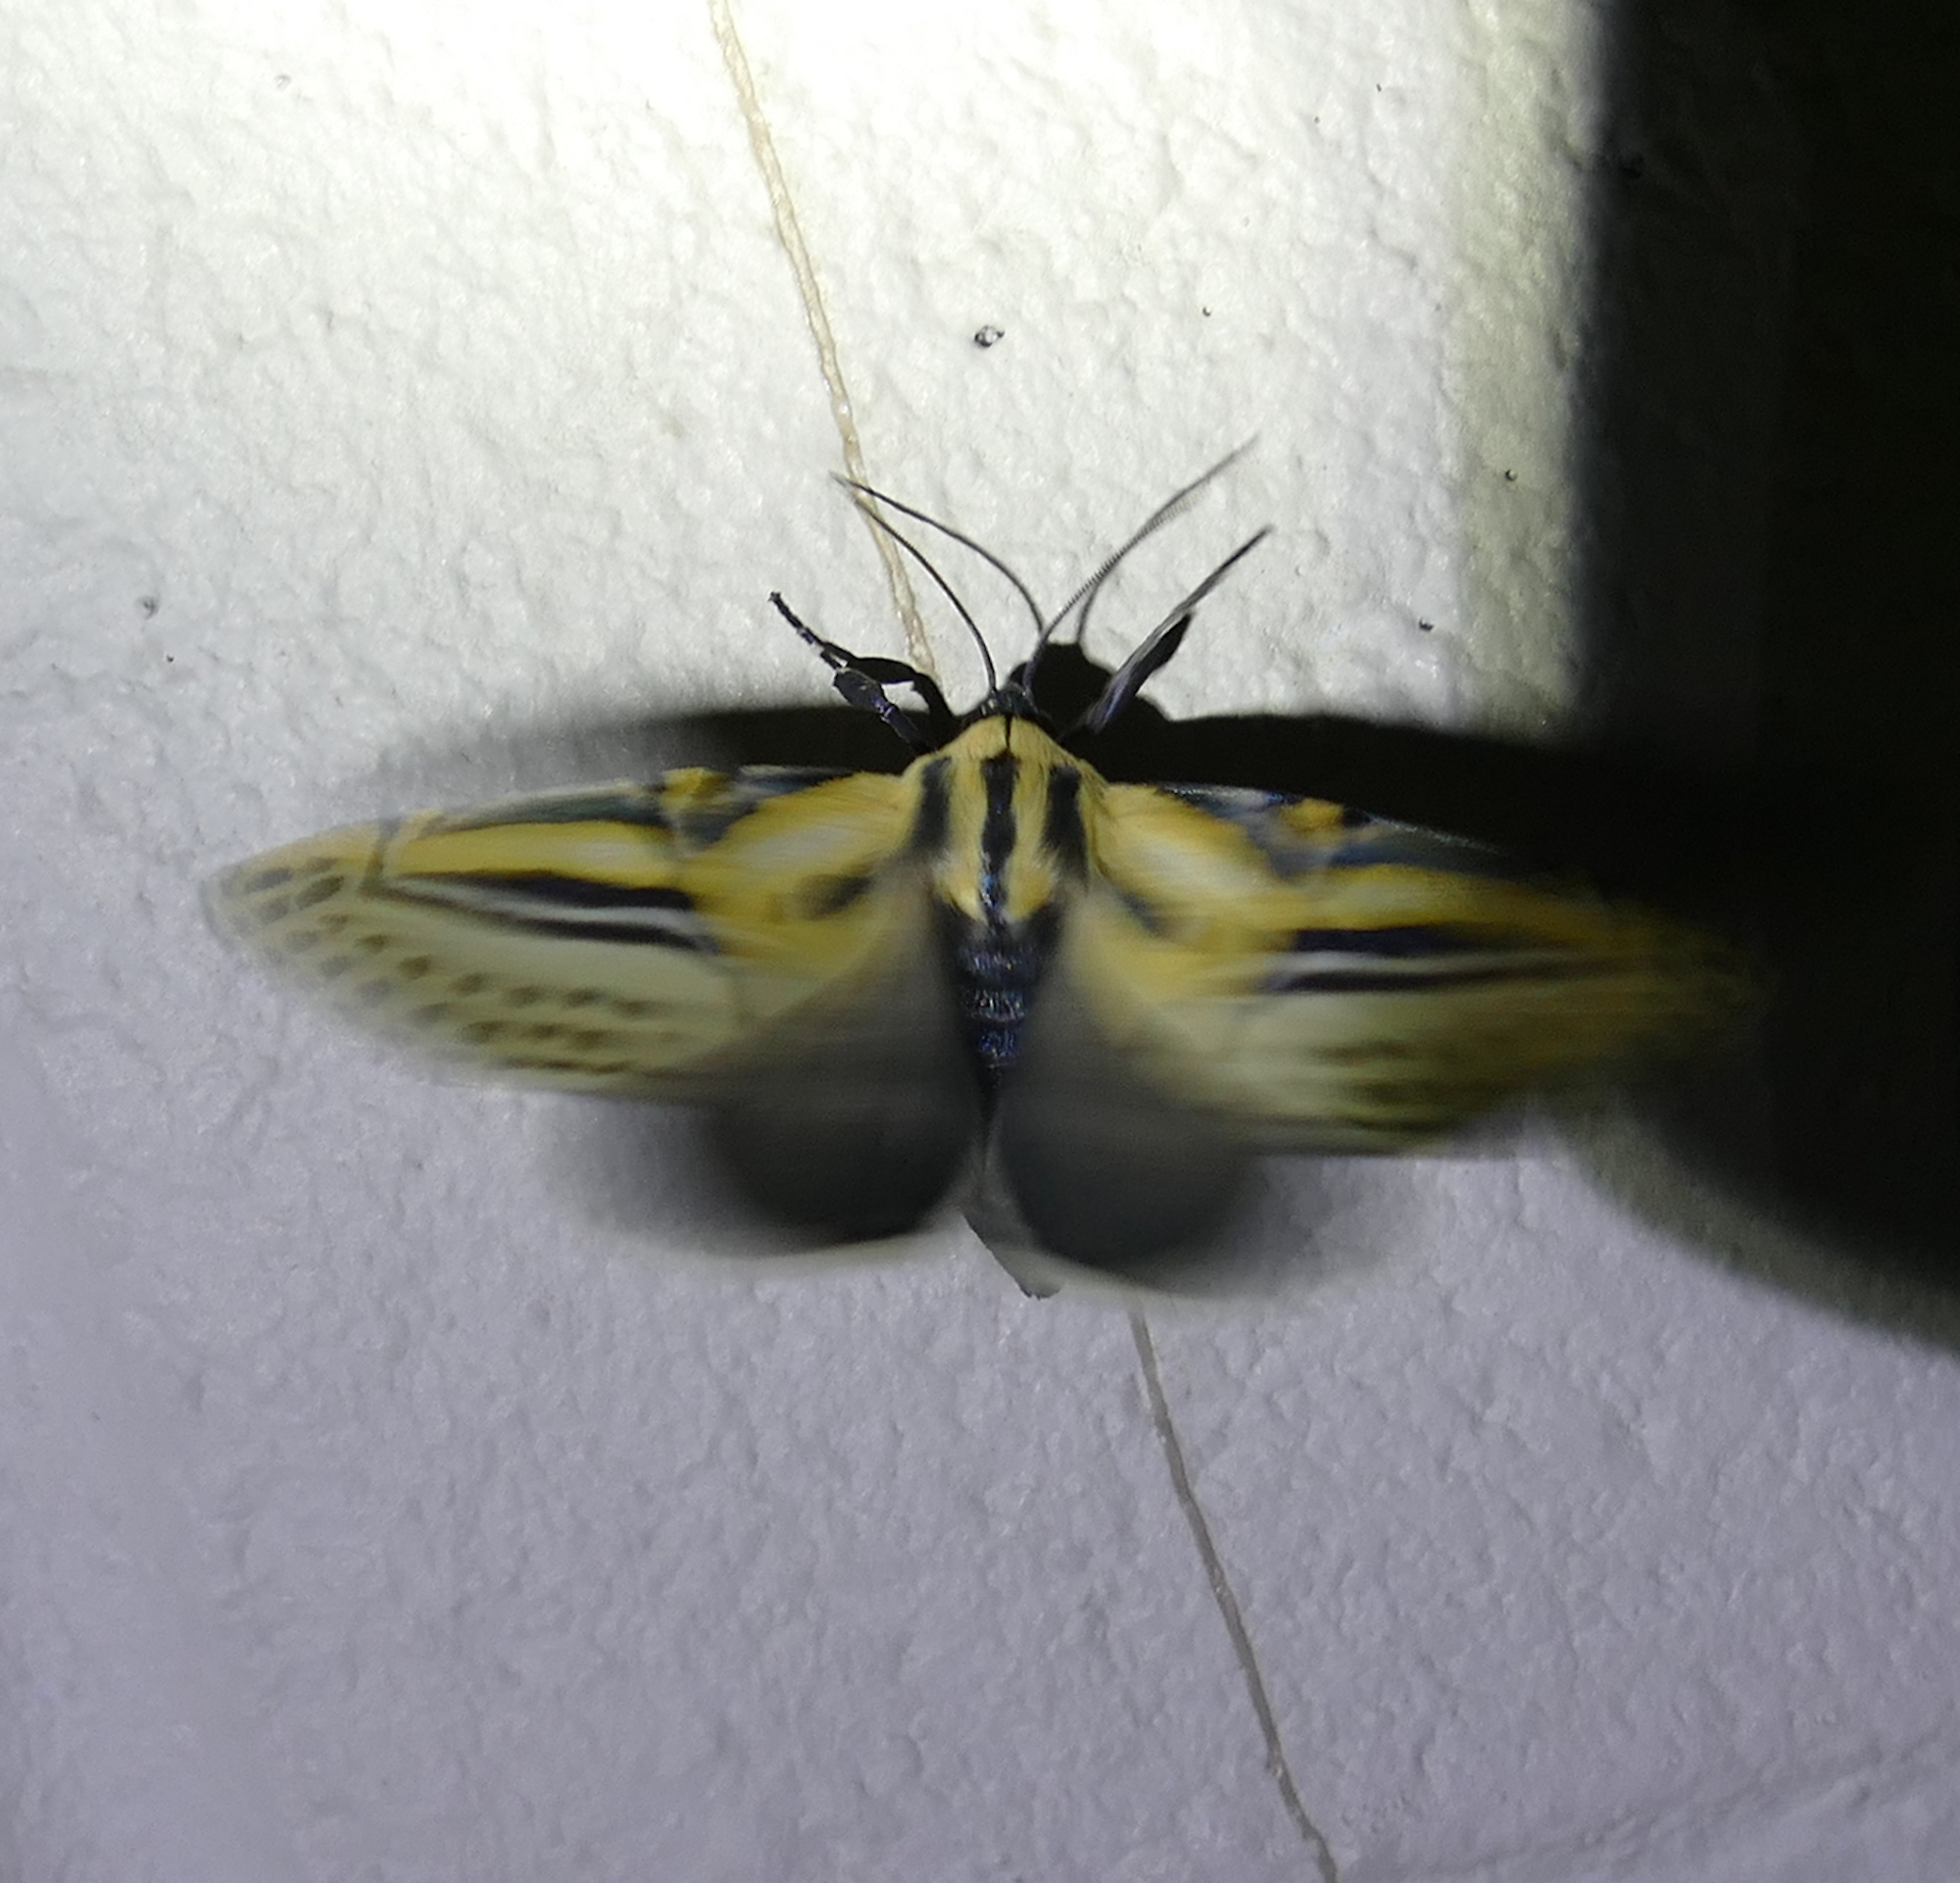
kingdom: Animalia
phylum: Arthropoda
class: Insecta
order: Lepidoptera
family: Erebidae
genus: Diphthera
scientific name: Diphthera festiva
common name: Hieroglyphic moth
